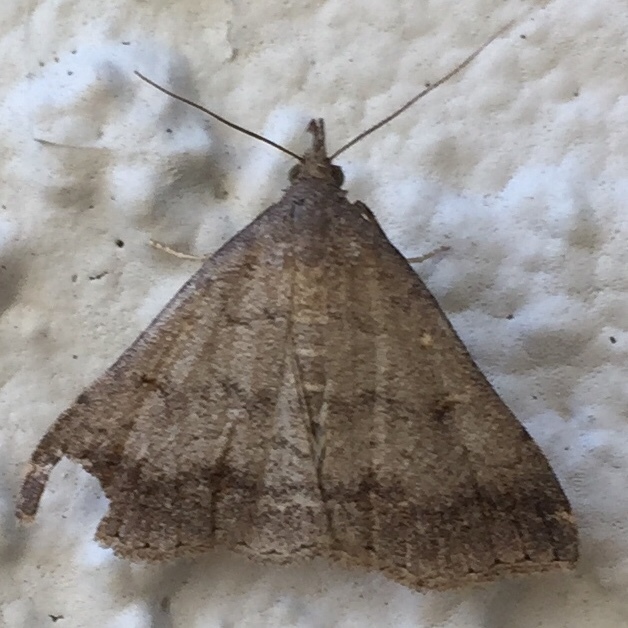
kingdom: Animalia
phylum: Arthropoda
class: Insecta
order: Lepidoptera
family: Erebidae
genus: Tetanolita
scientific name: Tetanolita palligera
